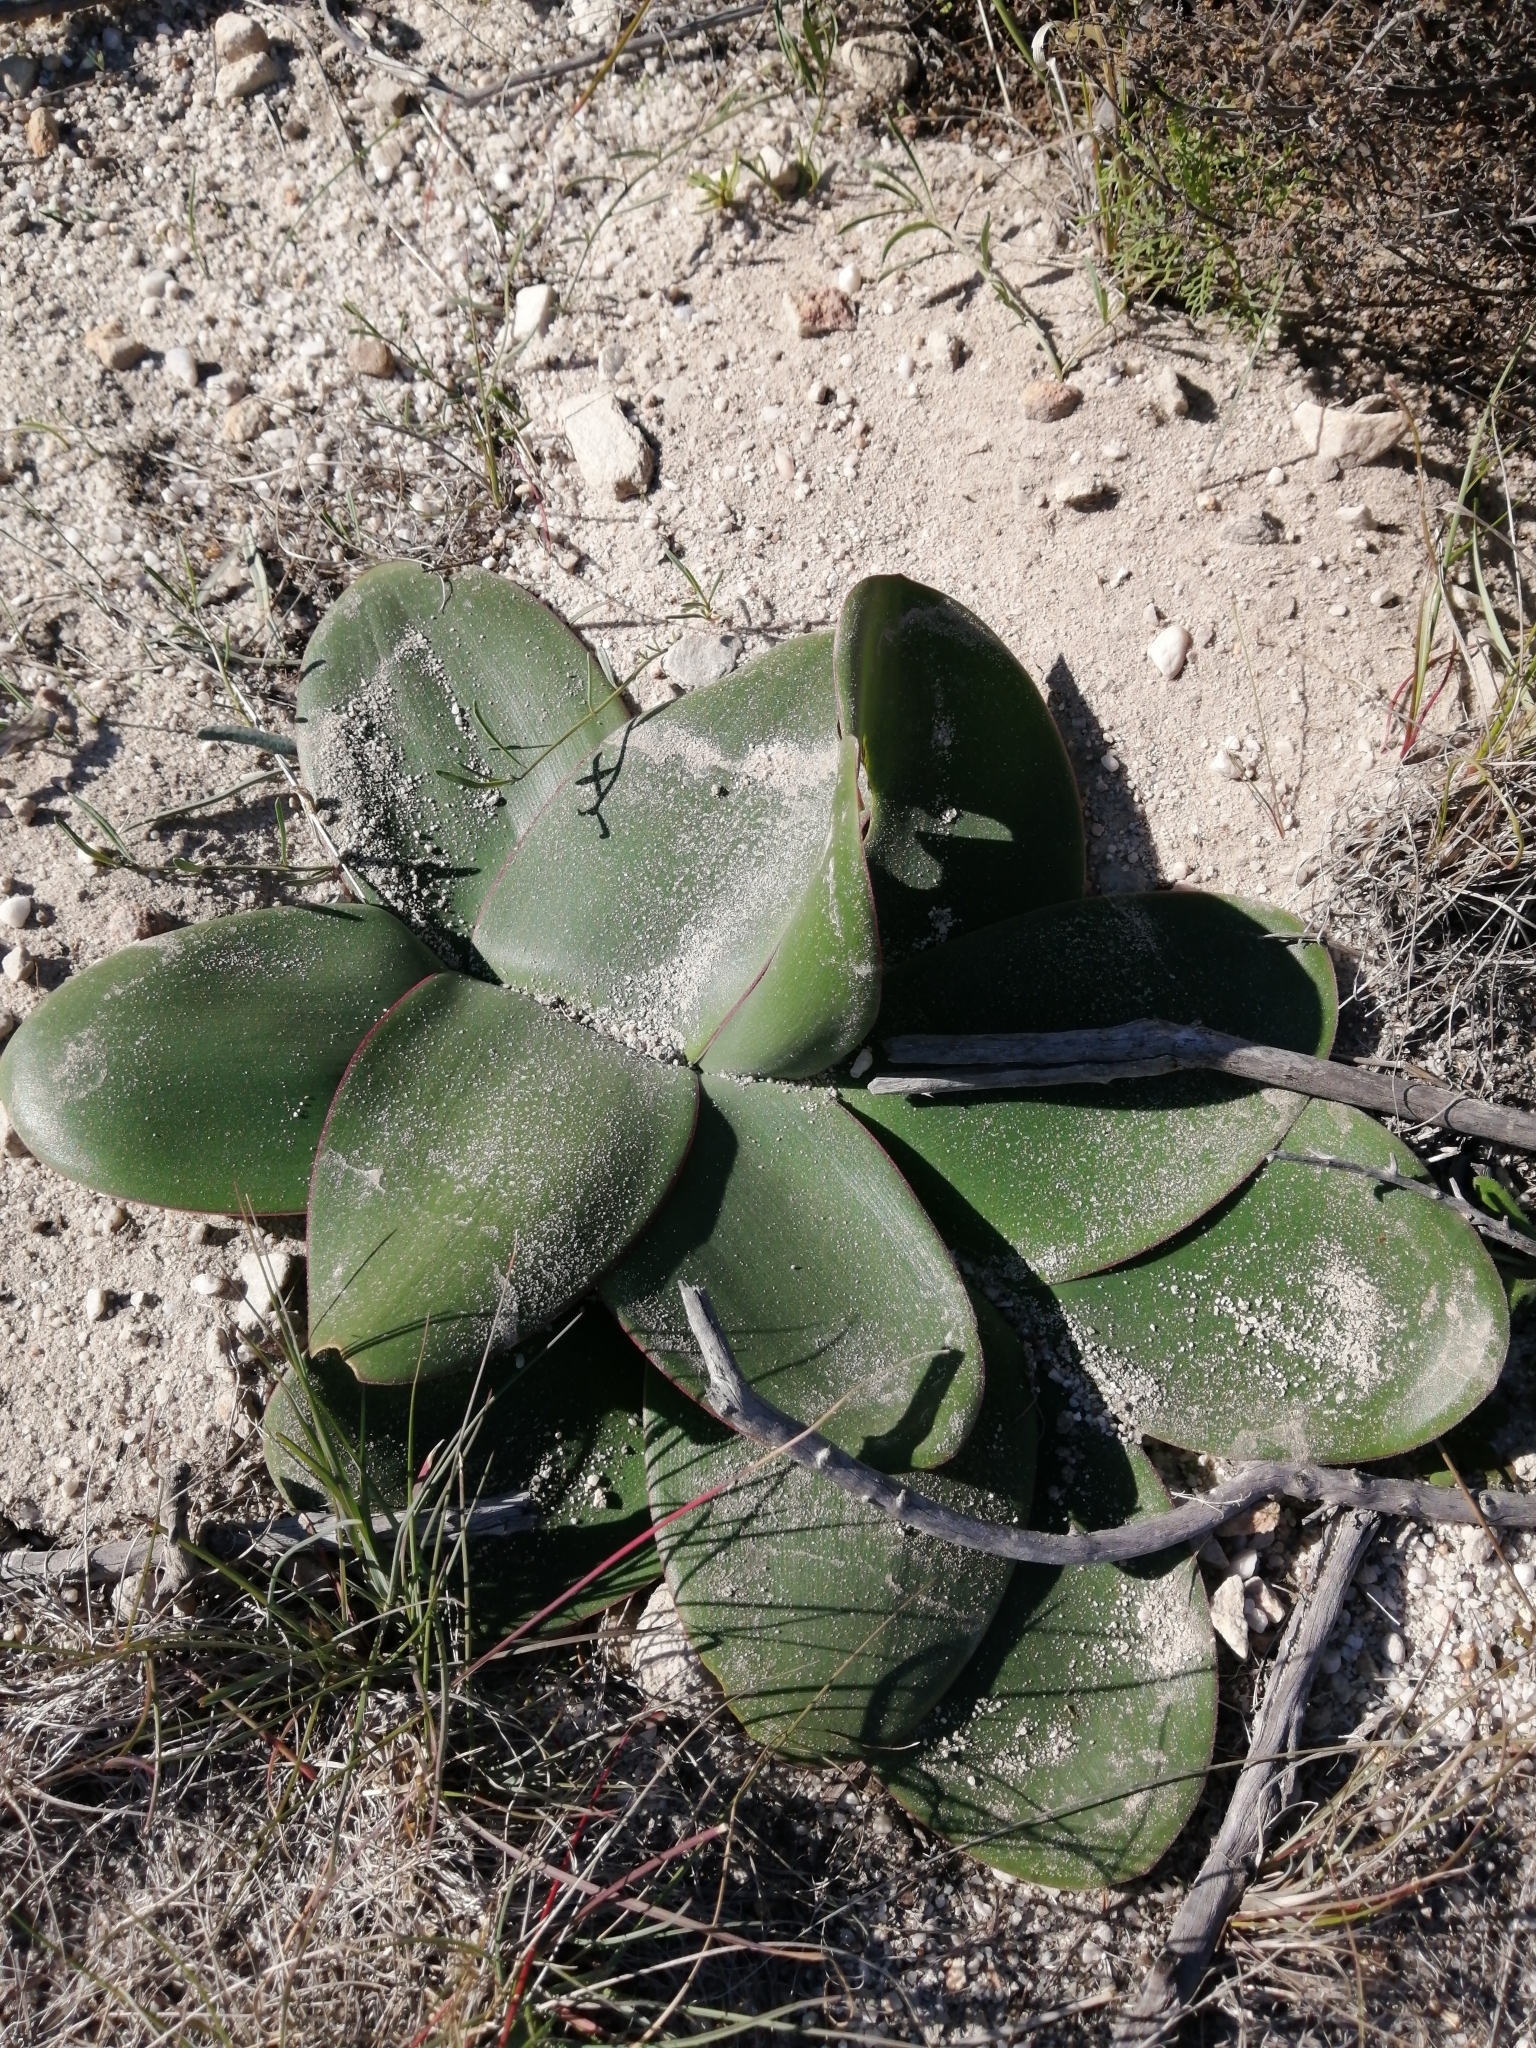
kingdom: Plantae
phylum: Tracheophyta
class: Liliopsida
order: Asparagales
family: Amaryllidaceae
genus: Brunsvigia
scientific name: Brunsvigia orientalis
